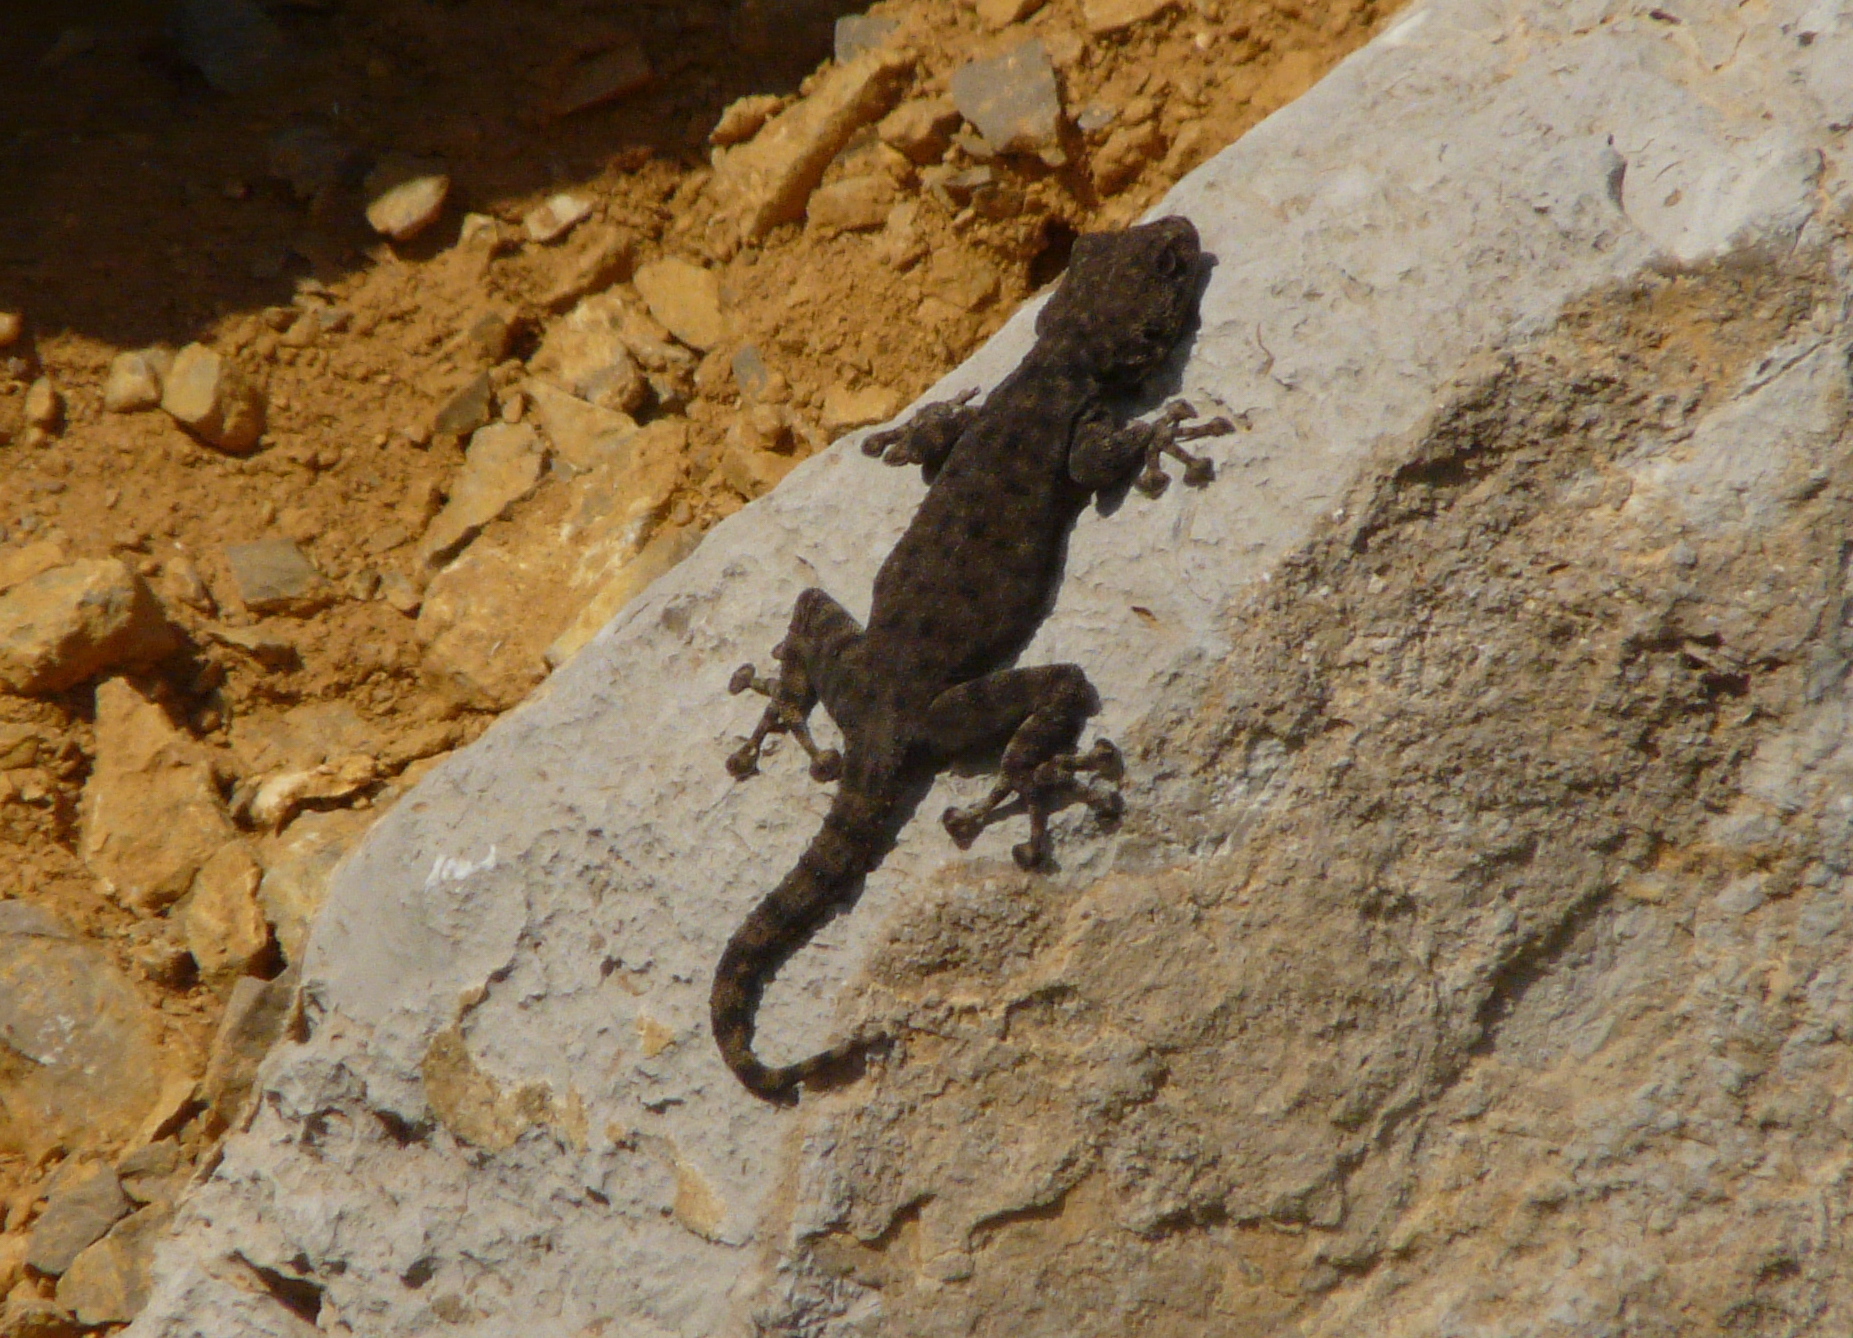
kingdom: Animalia
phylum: Chordata
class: Squamata
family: Phyllodactylidae
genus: Ptyodactylus
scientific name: Ptyodactylus puiseuxi
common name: Israeli fan-fingered gecko
